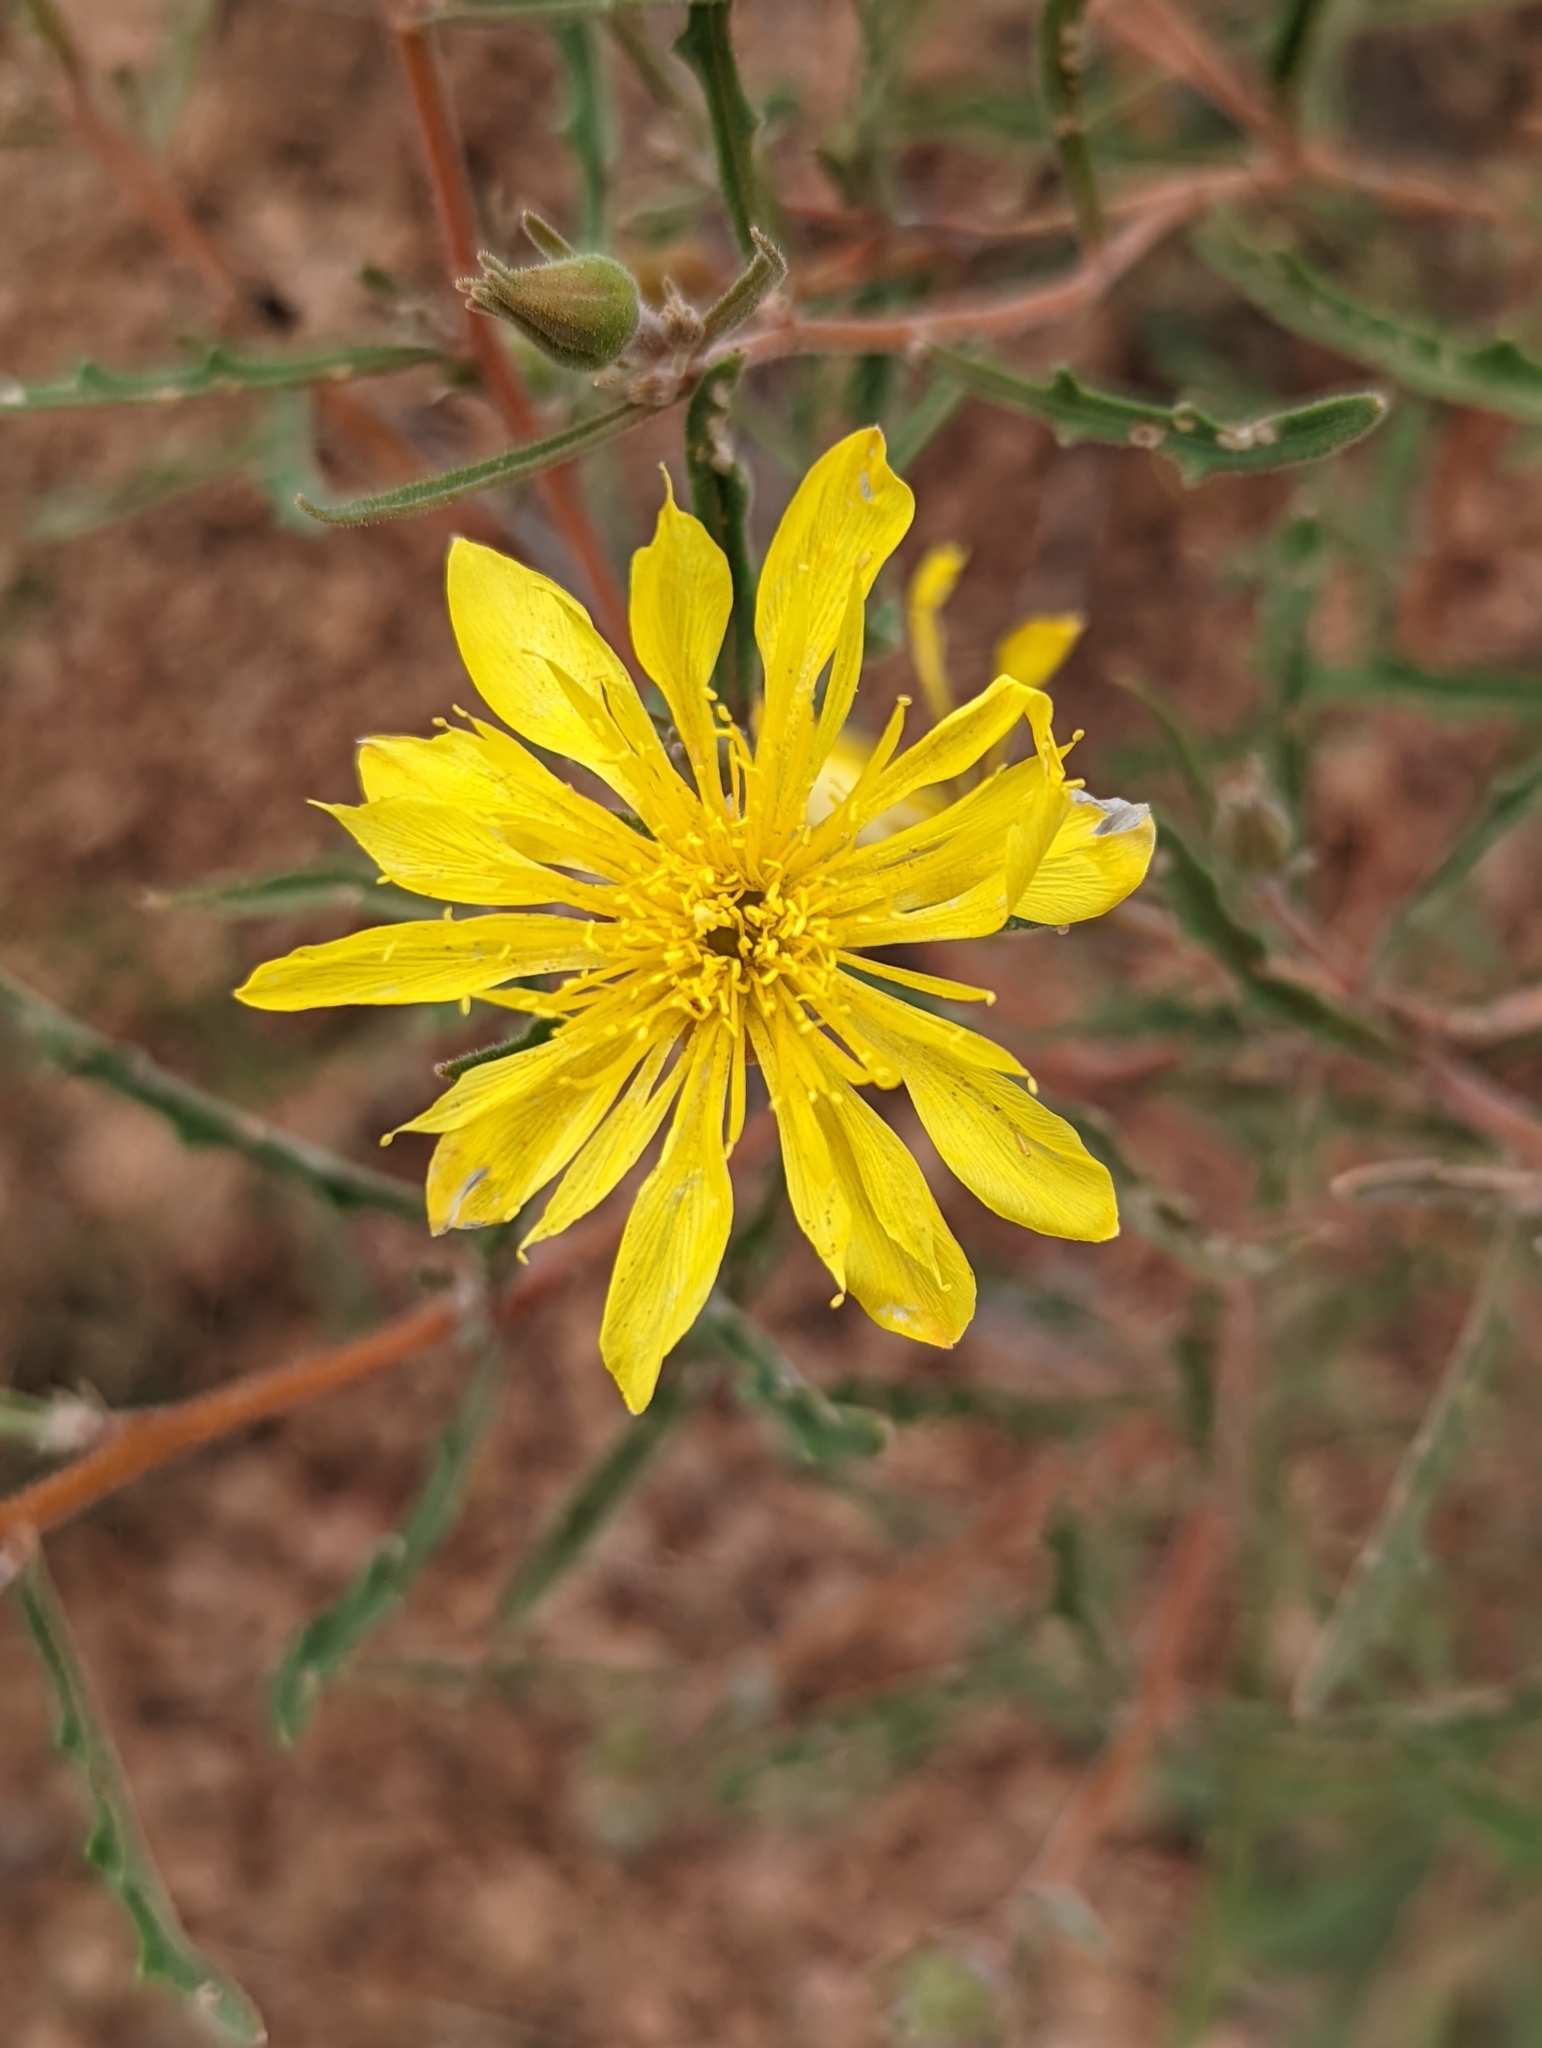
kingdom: Plantae
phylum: Tracheophyta
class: Magnoliopsida
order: Cornales
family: Loasaceae
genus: Mentzelia
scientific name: Mentzelia speciosa
